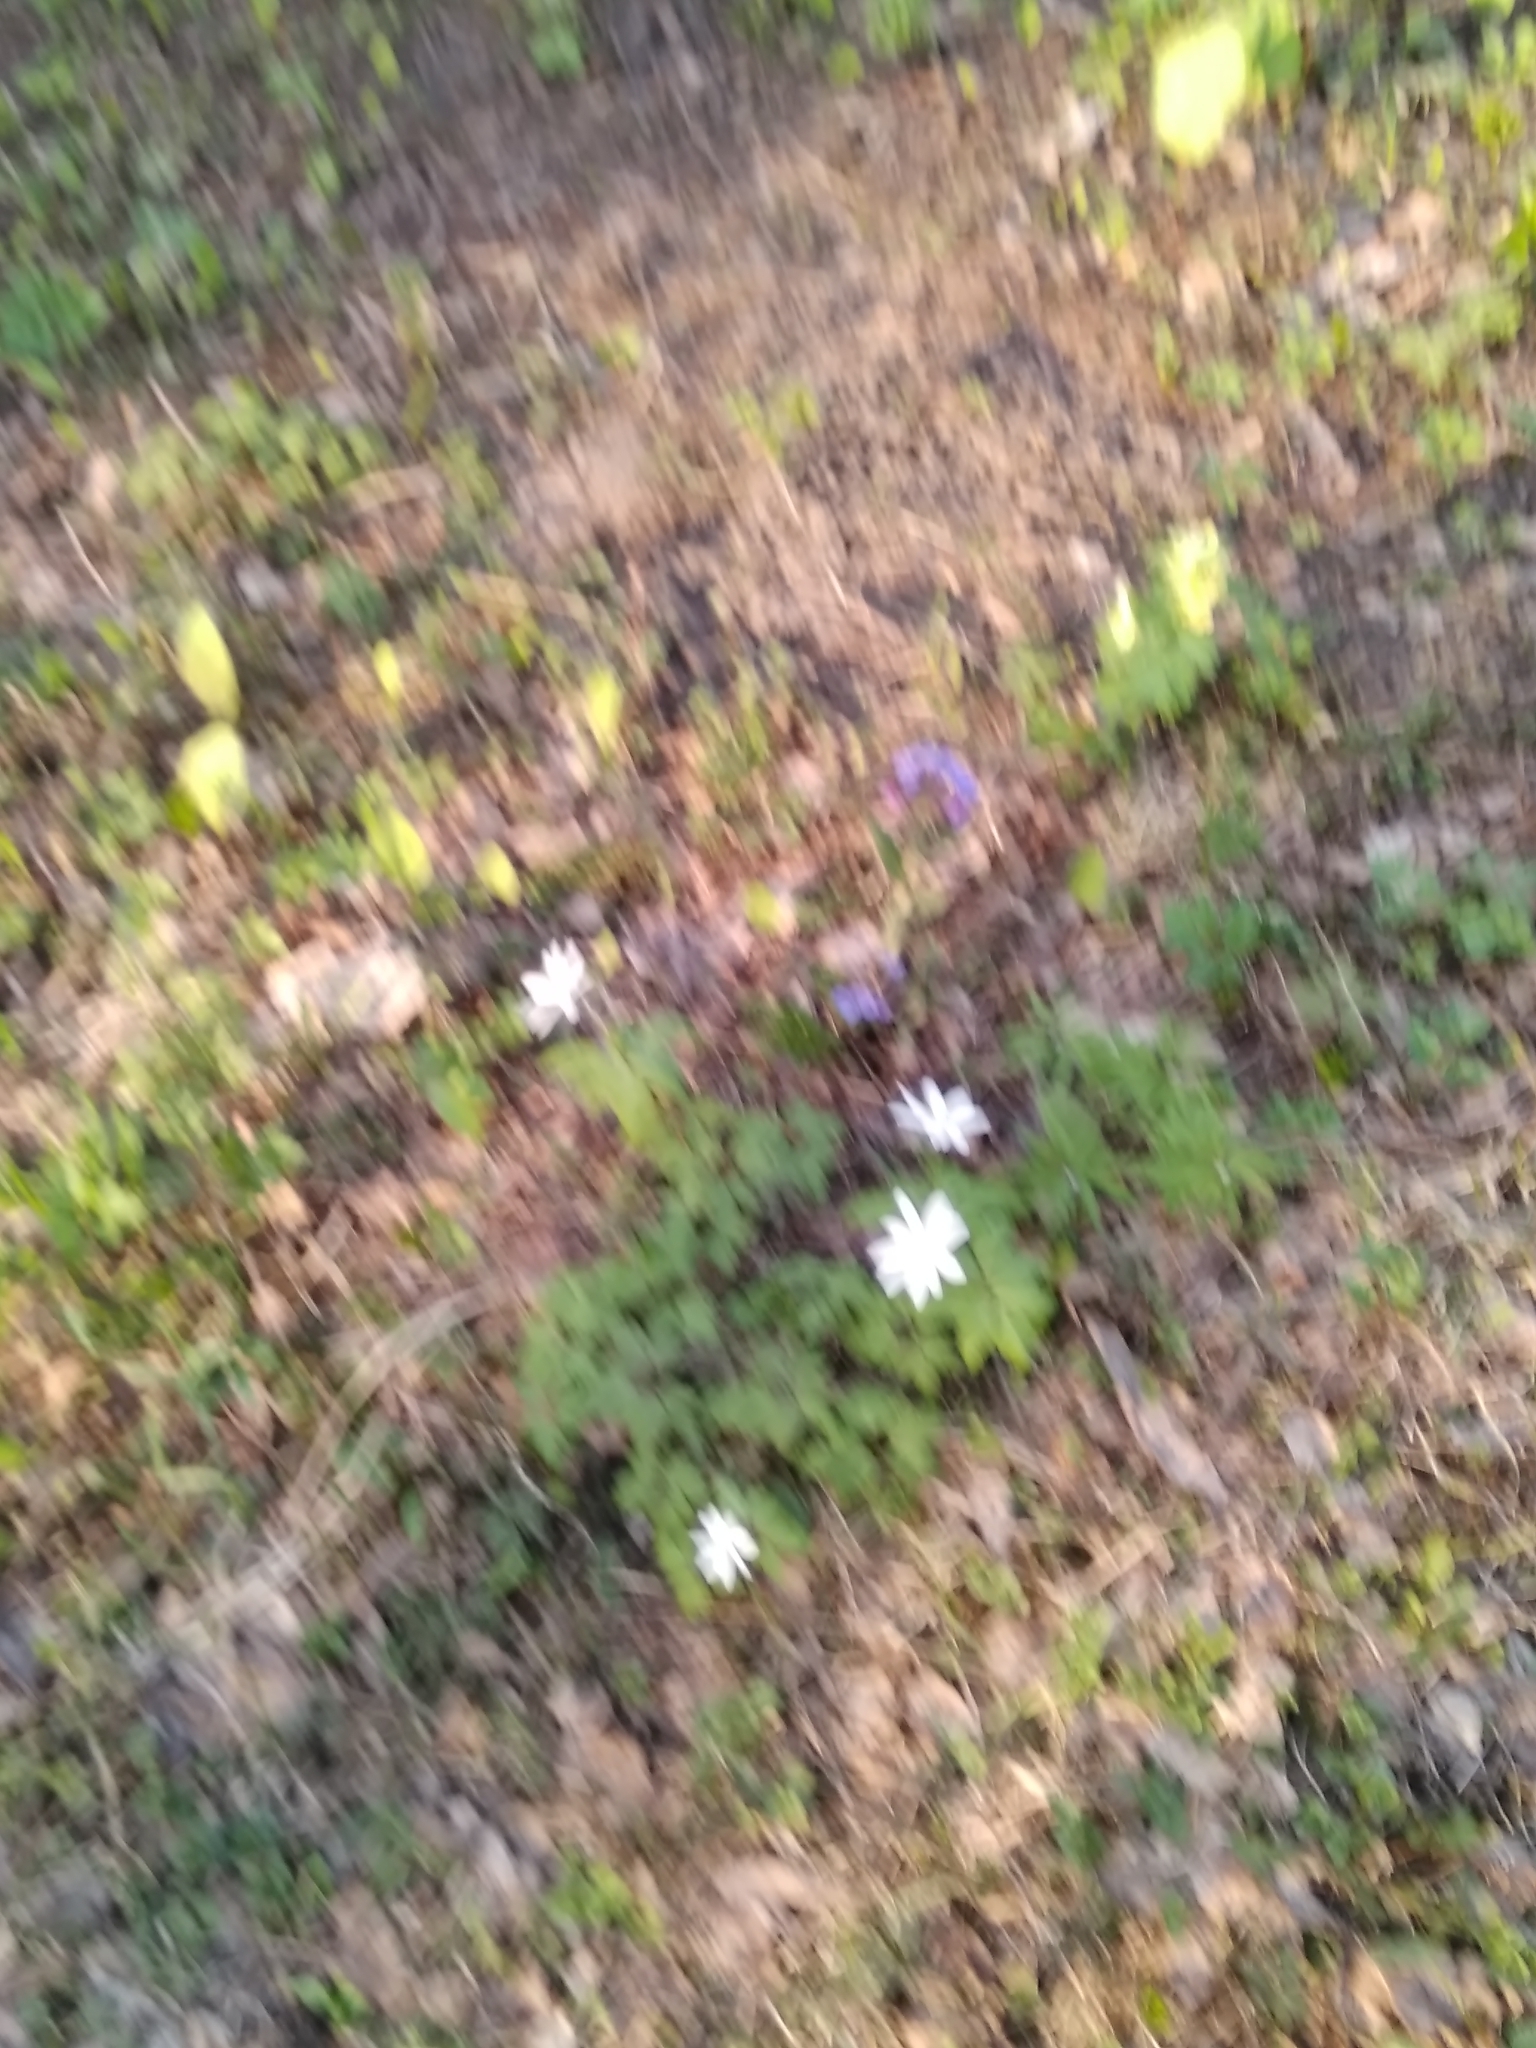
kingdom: Plantae
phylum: Tracheophyta
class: Magnoliopsida
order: Ranunculales
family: Ranunculaceae
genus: Anemone
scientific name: Anemone altaica
